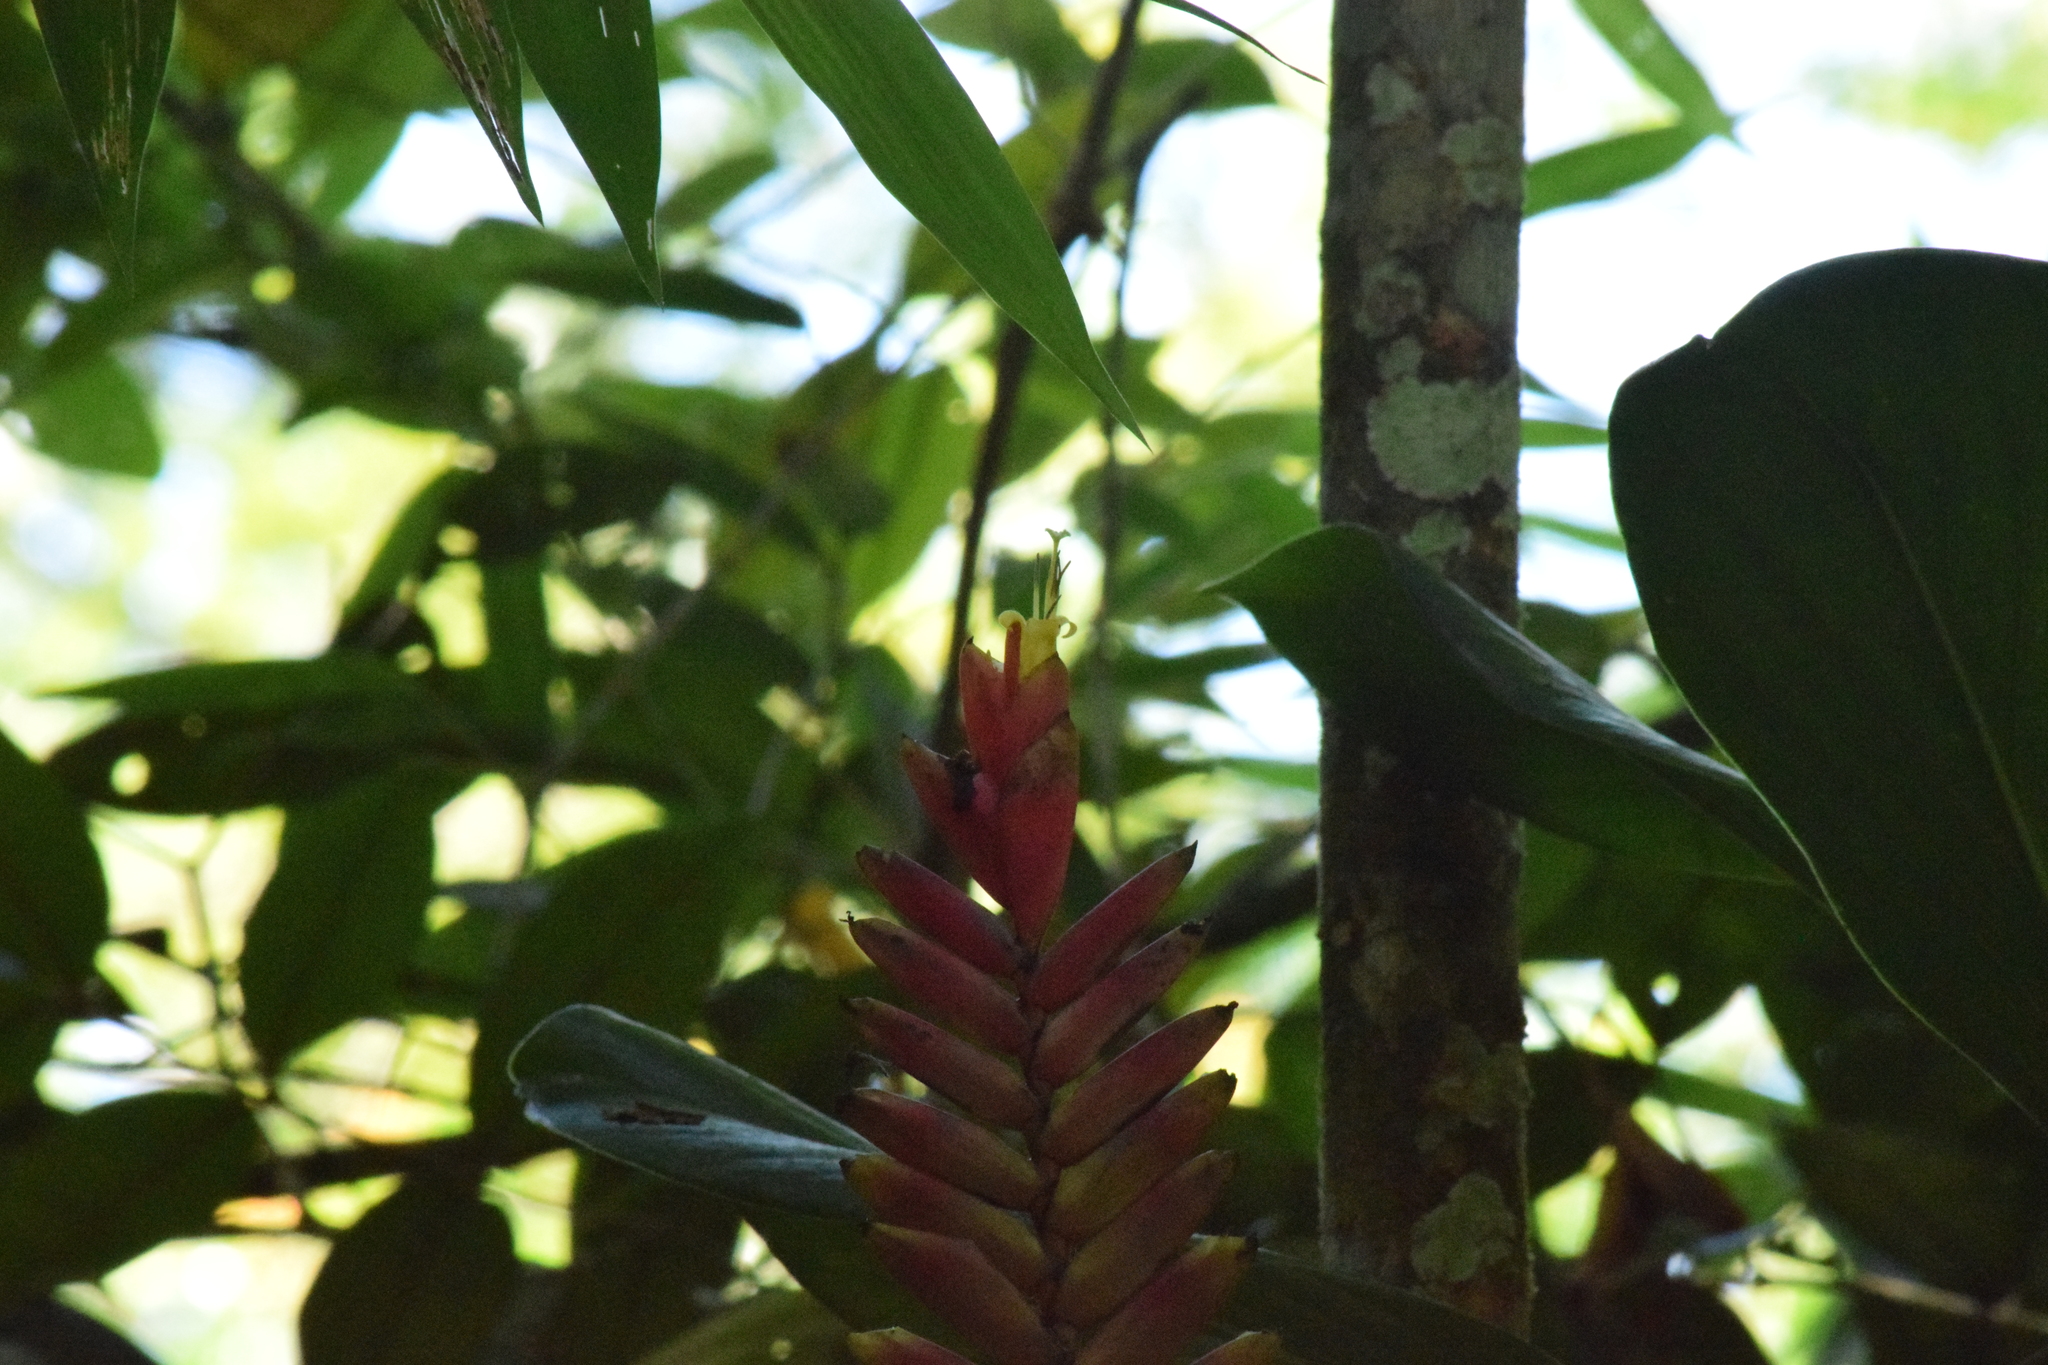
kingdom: Plantae
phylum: Tracheophyta
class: Liliopsida
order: Poales
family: Bromeliaceae
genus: Vriesea
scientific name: Vriesea ensiformis
